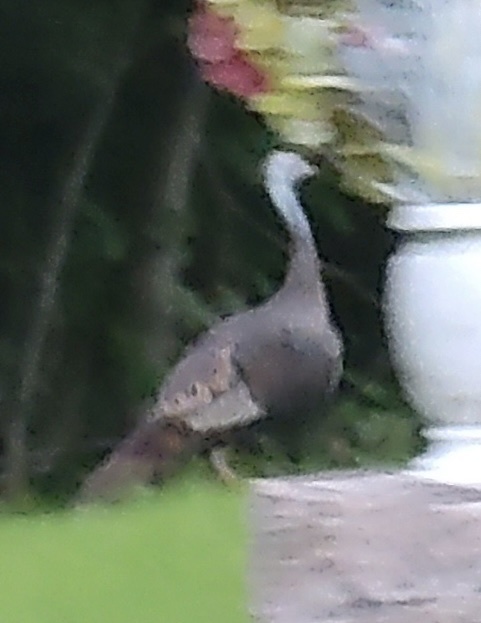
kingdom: Animalia
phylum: Chordata
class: Aves
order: Galliformes
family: Phasianidae
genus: Meleagris
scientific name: Meleagris gallopavo
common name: Wild turkey
